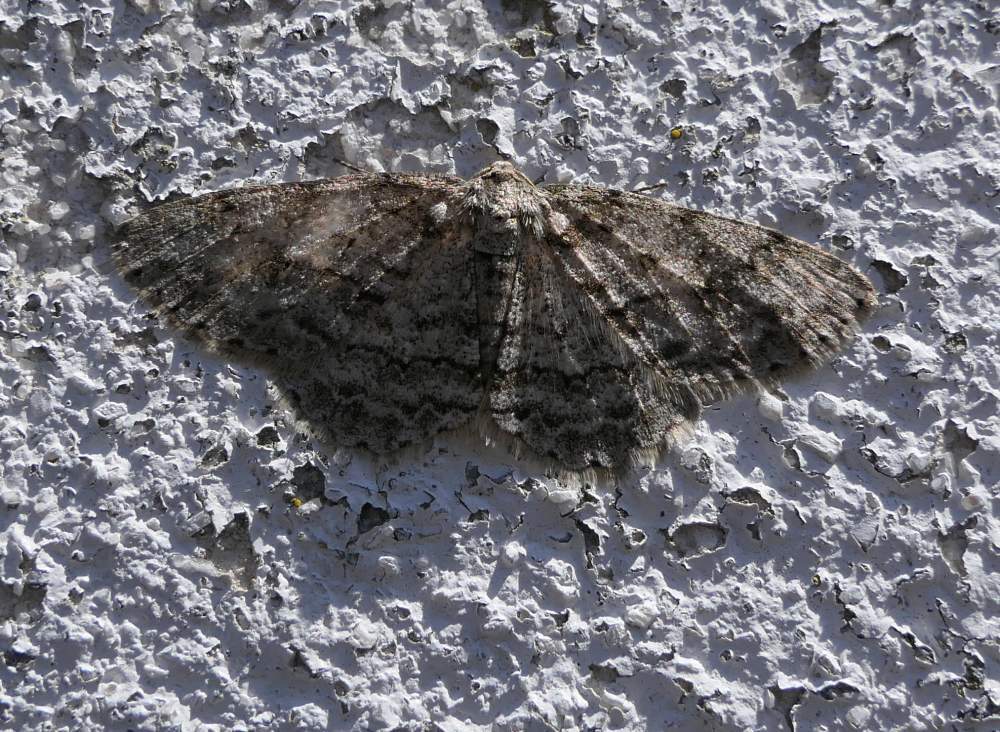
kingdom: Animalia
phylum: Arthropoda
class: Insecta
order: Lepidoptera
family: Geometridae
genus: Ectropis
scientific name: Ectropis crepuscularia
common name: Engrailed
